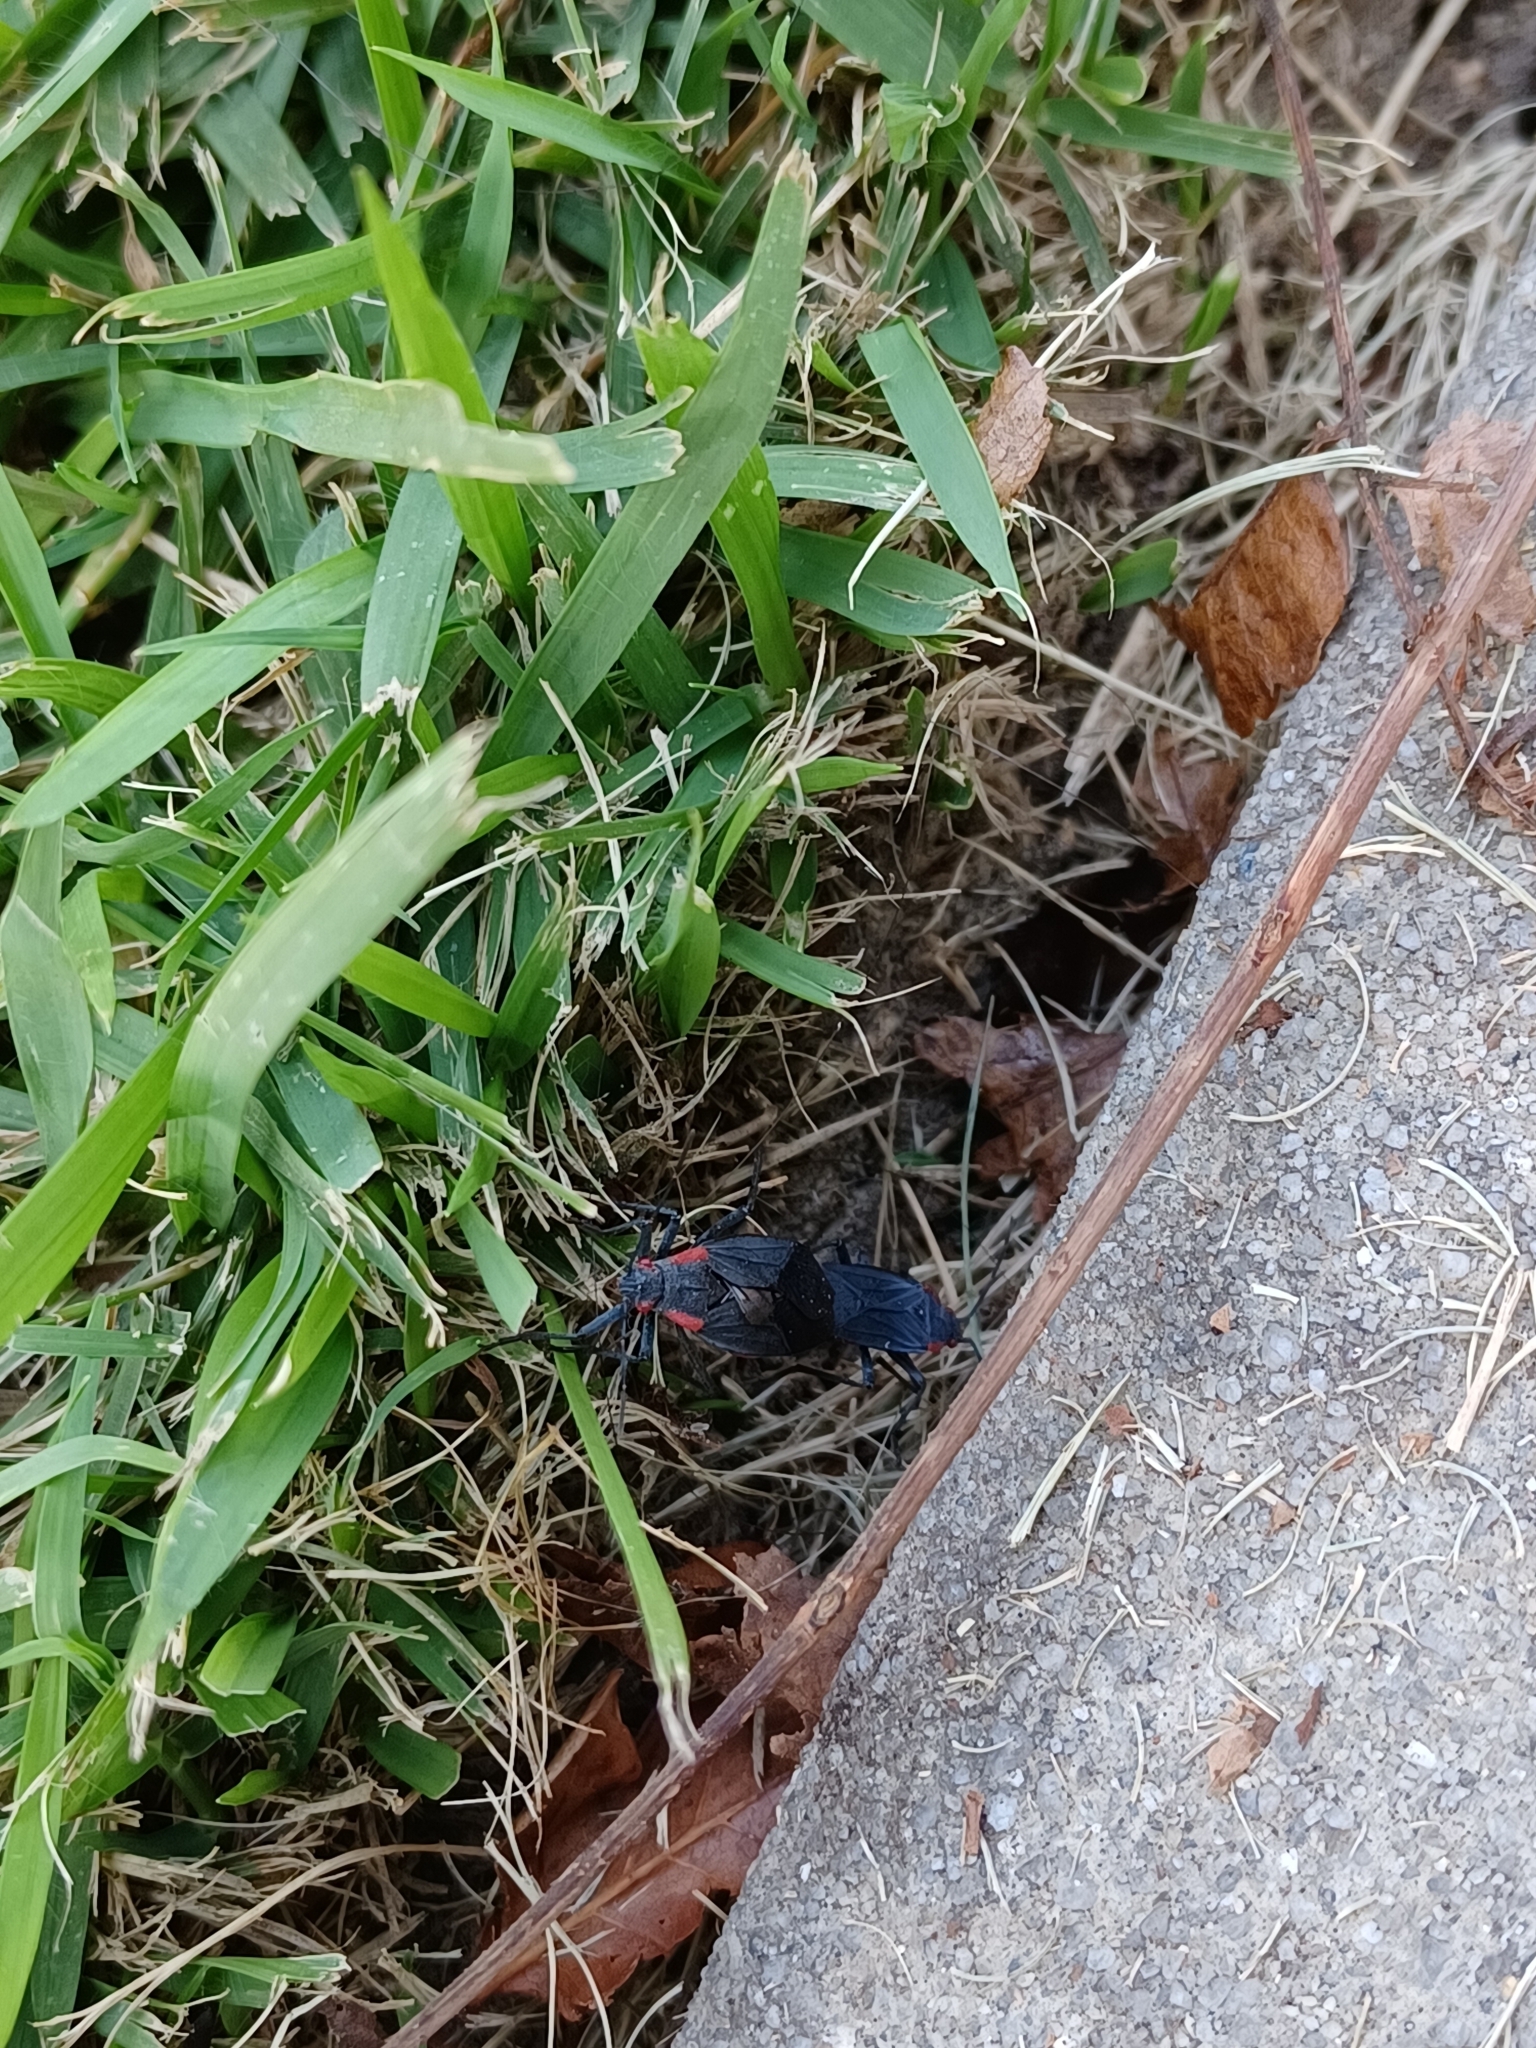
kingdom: Animalia
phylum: Arthropoda
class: Insecta
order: Hemiptera
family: Rhopalidae
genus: Jadera
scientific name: Jadera haematoloma
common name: Red-shouldered bug
